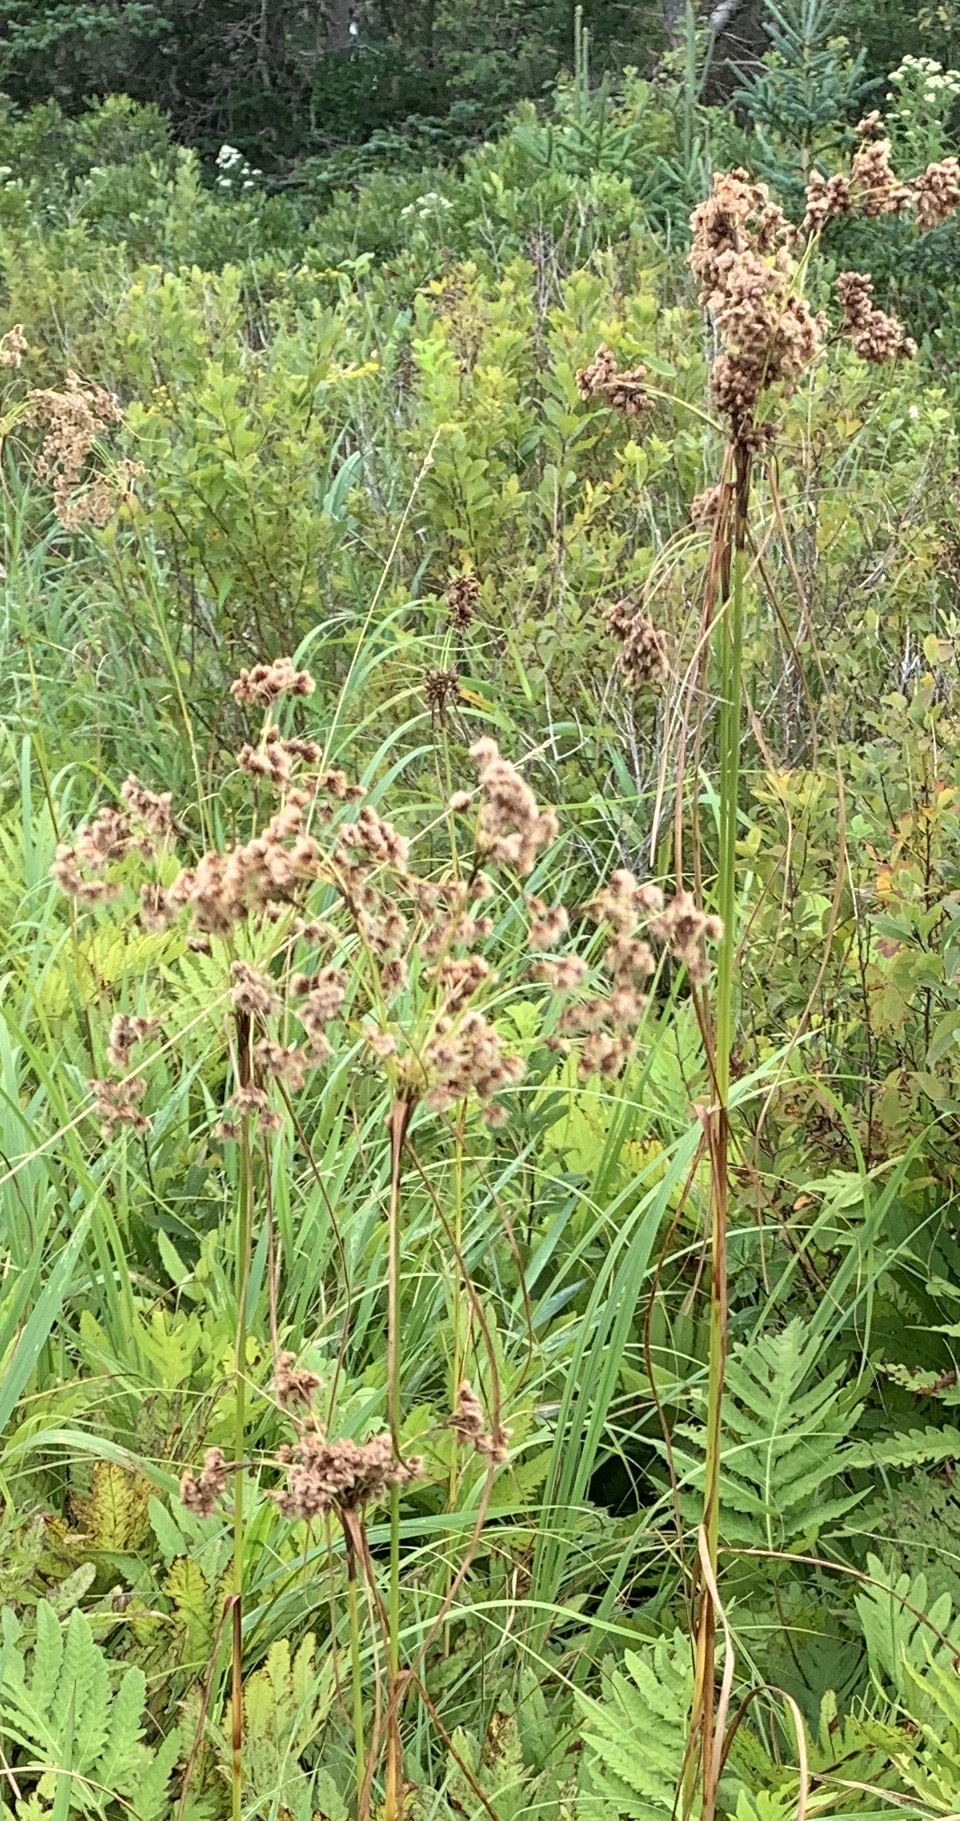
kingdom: Plantae
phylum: Tracheophyta
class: Liliopsida
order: Poales
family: Cyperaceae
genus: Scirpus
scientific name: Scirpus cyperinus
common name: Black-sheathed bulrush
